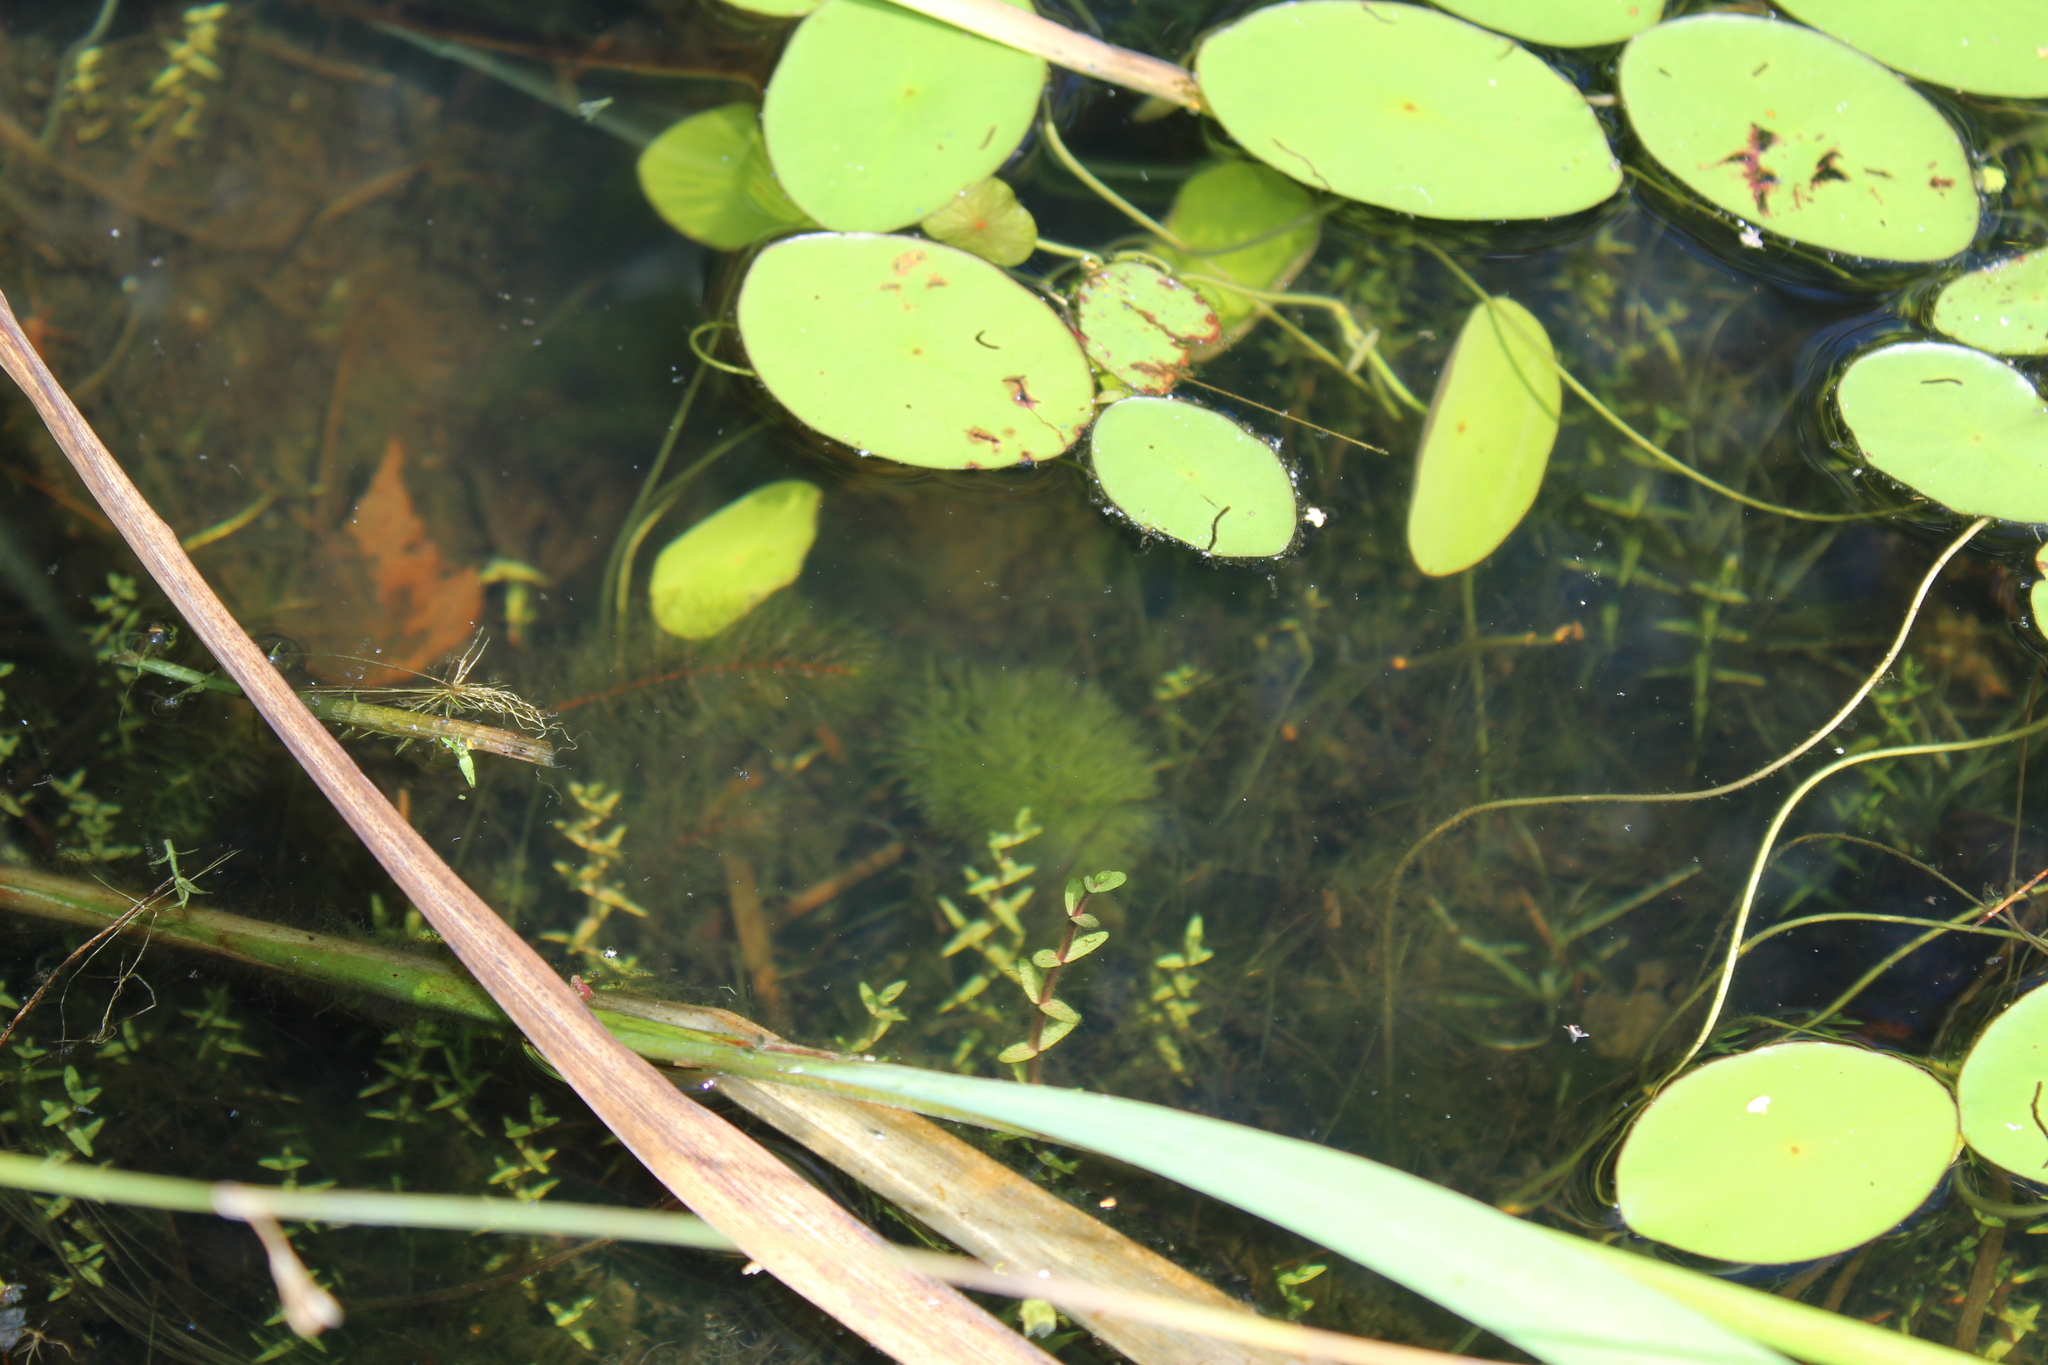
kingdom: Plantae
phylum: Tracheophyta
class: Magnoliopsida
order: Nymphaeales
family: Cabombaceae
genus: Brasenia
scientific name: Brasenia schreberi
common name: Water-shield
